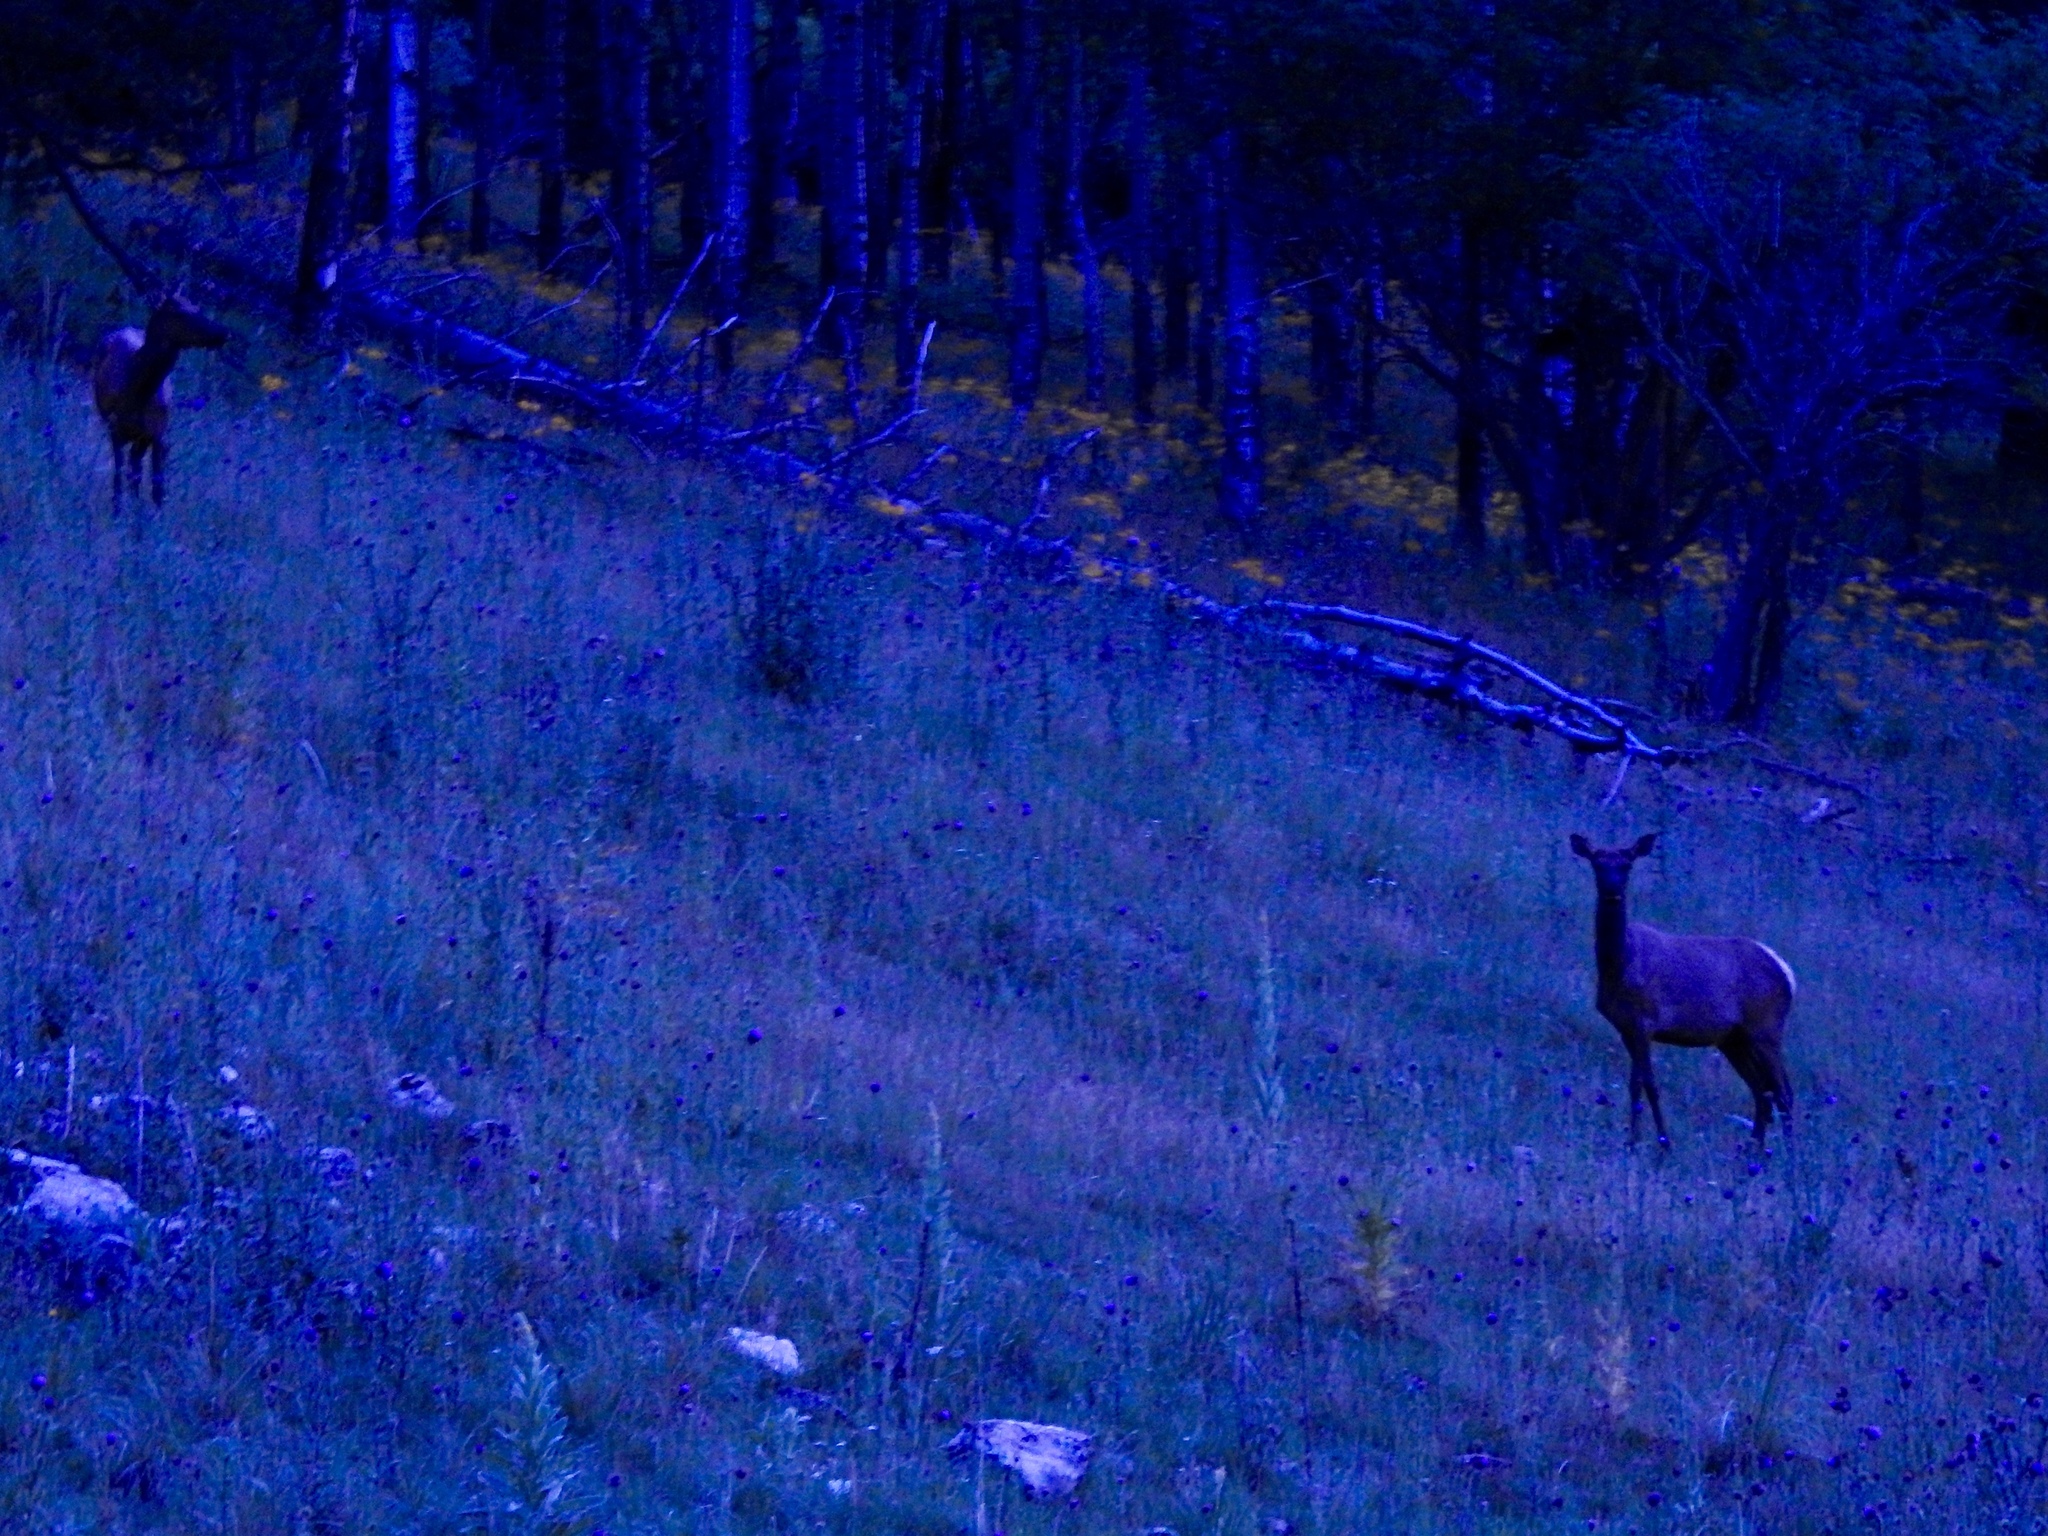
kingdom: Animalia
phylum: Chordata
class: Mammalia
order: Artiodactyla
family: Cervidae
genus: Cervus
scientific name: Cervus elaphus
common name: Red deer
